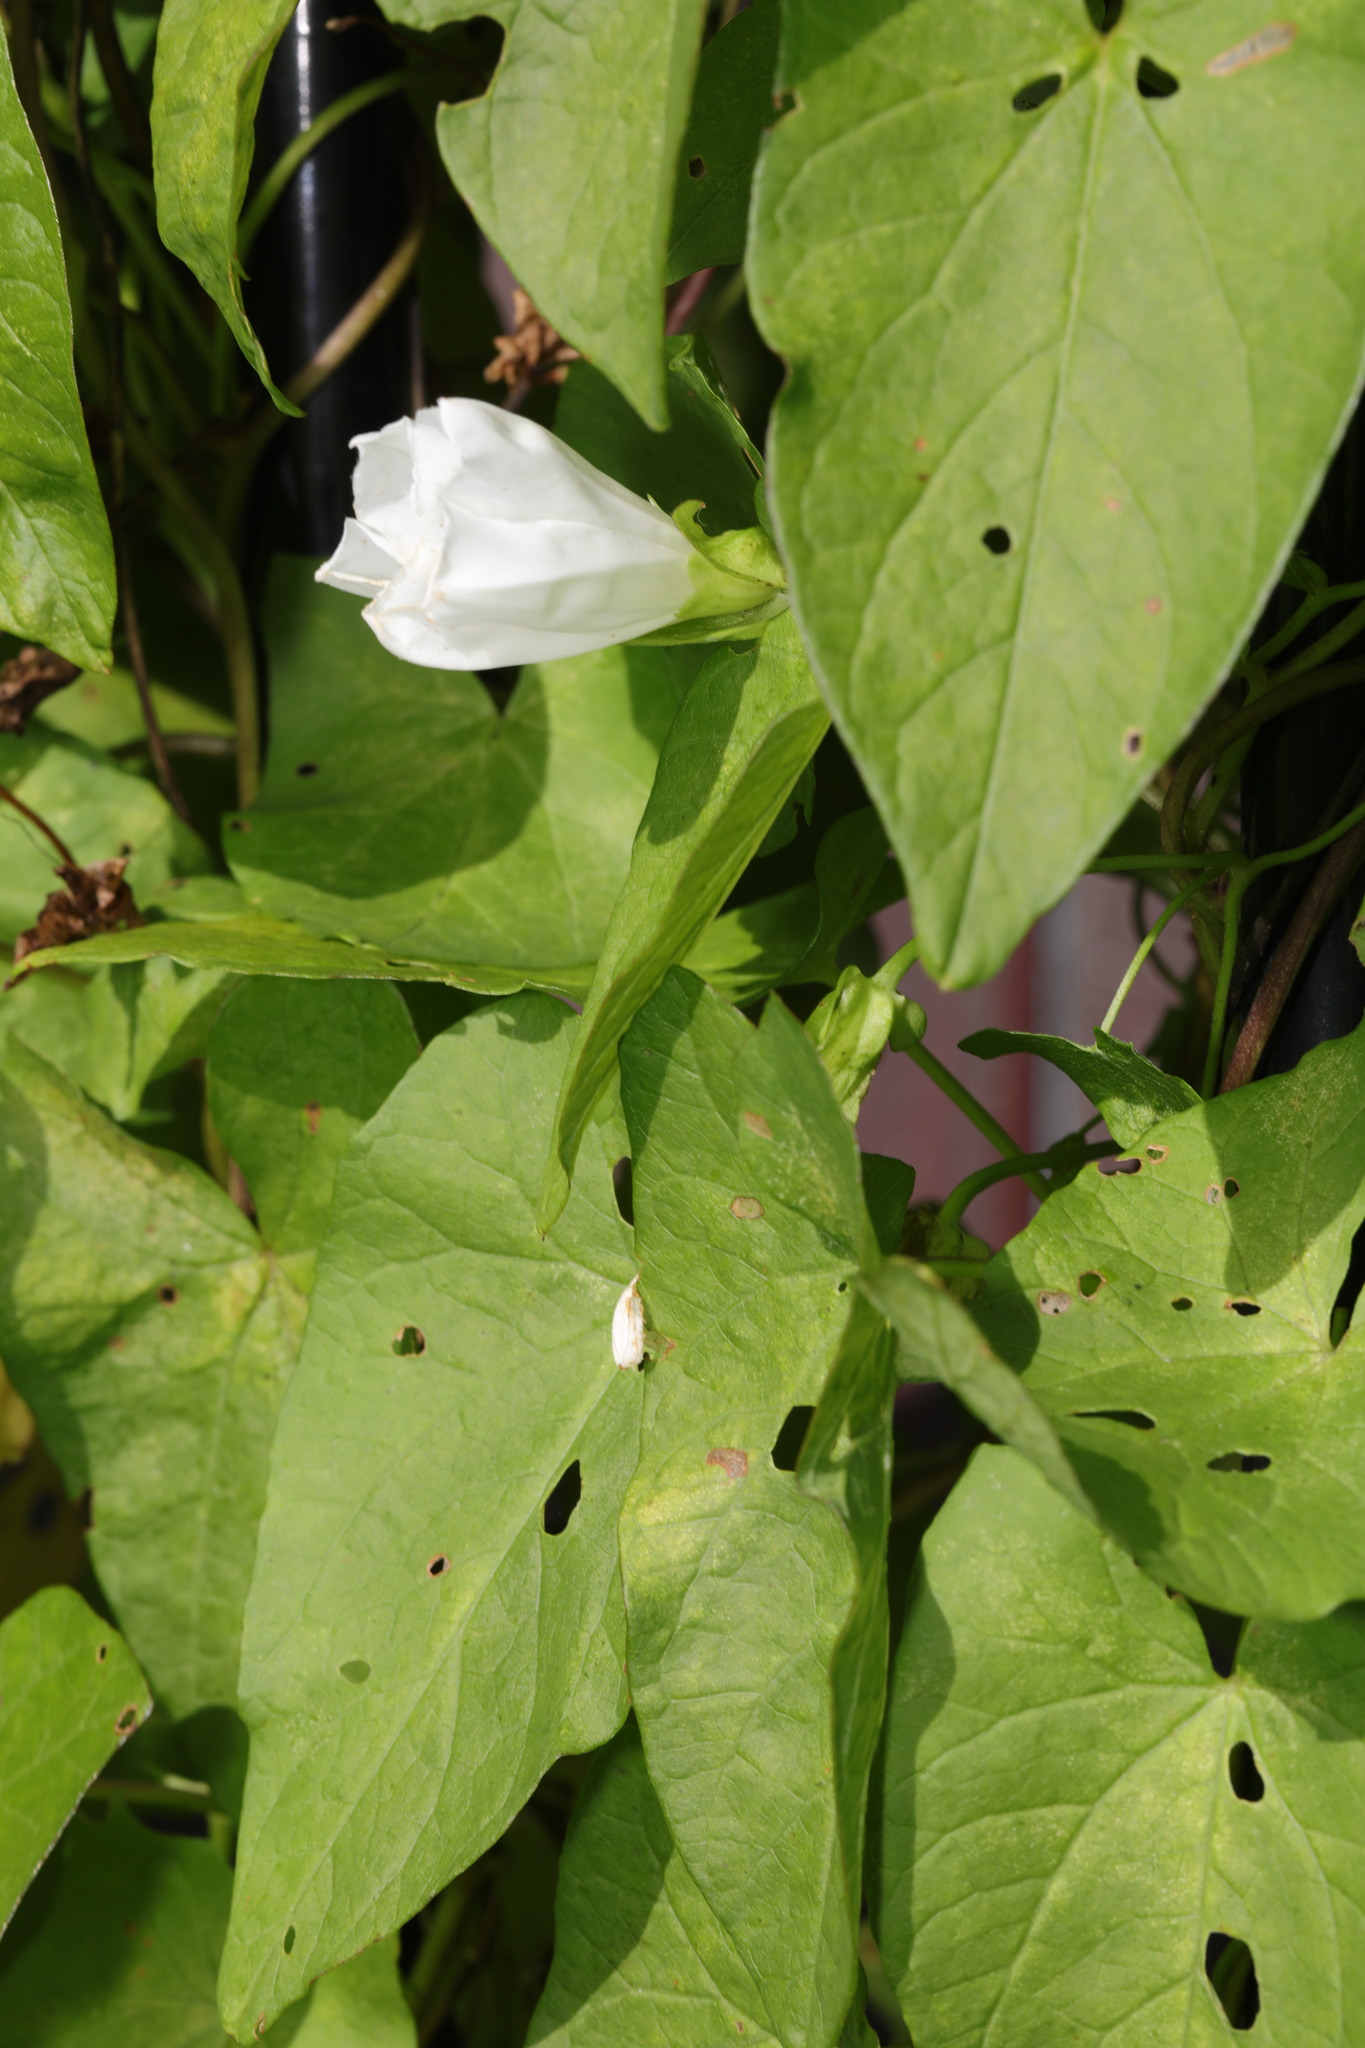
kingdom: Plantae
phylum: Tracheophyta
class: Magnoliopsida
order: Solanales
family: Convolvulaceae
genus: Calystegia
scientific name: Calystegia sepium
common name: Hedge bindweed
